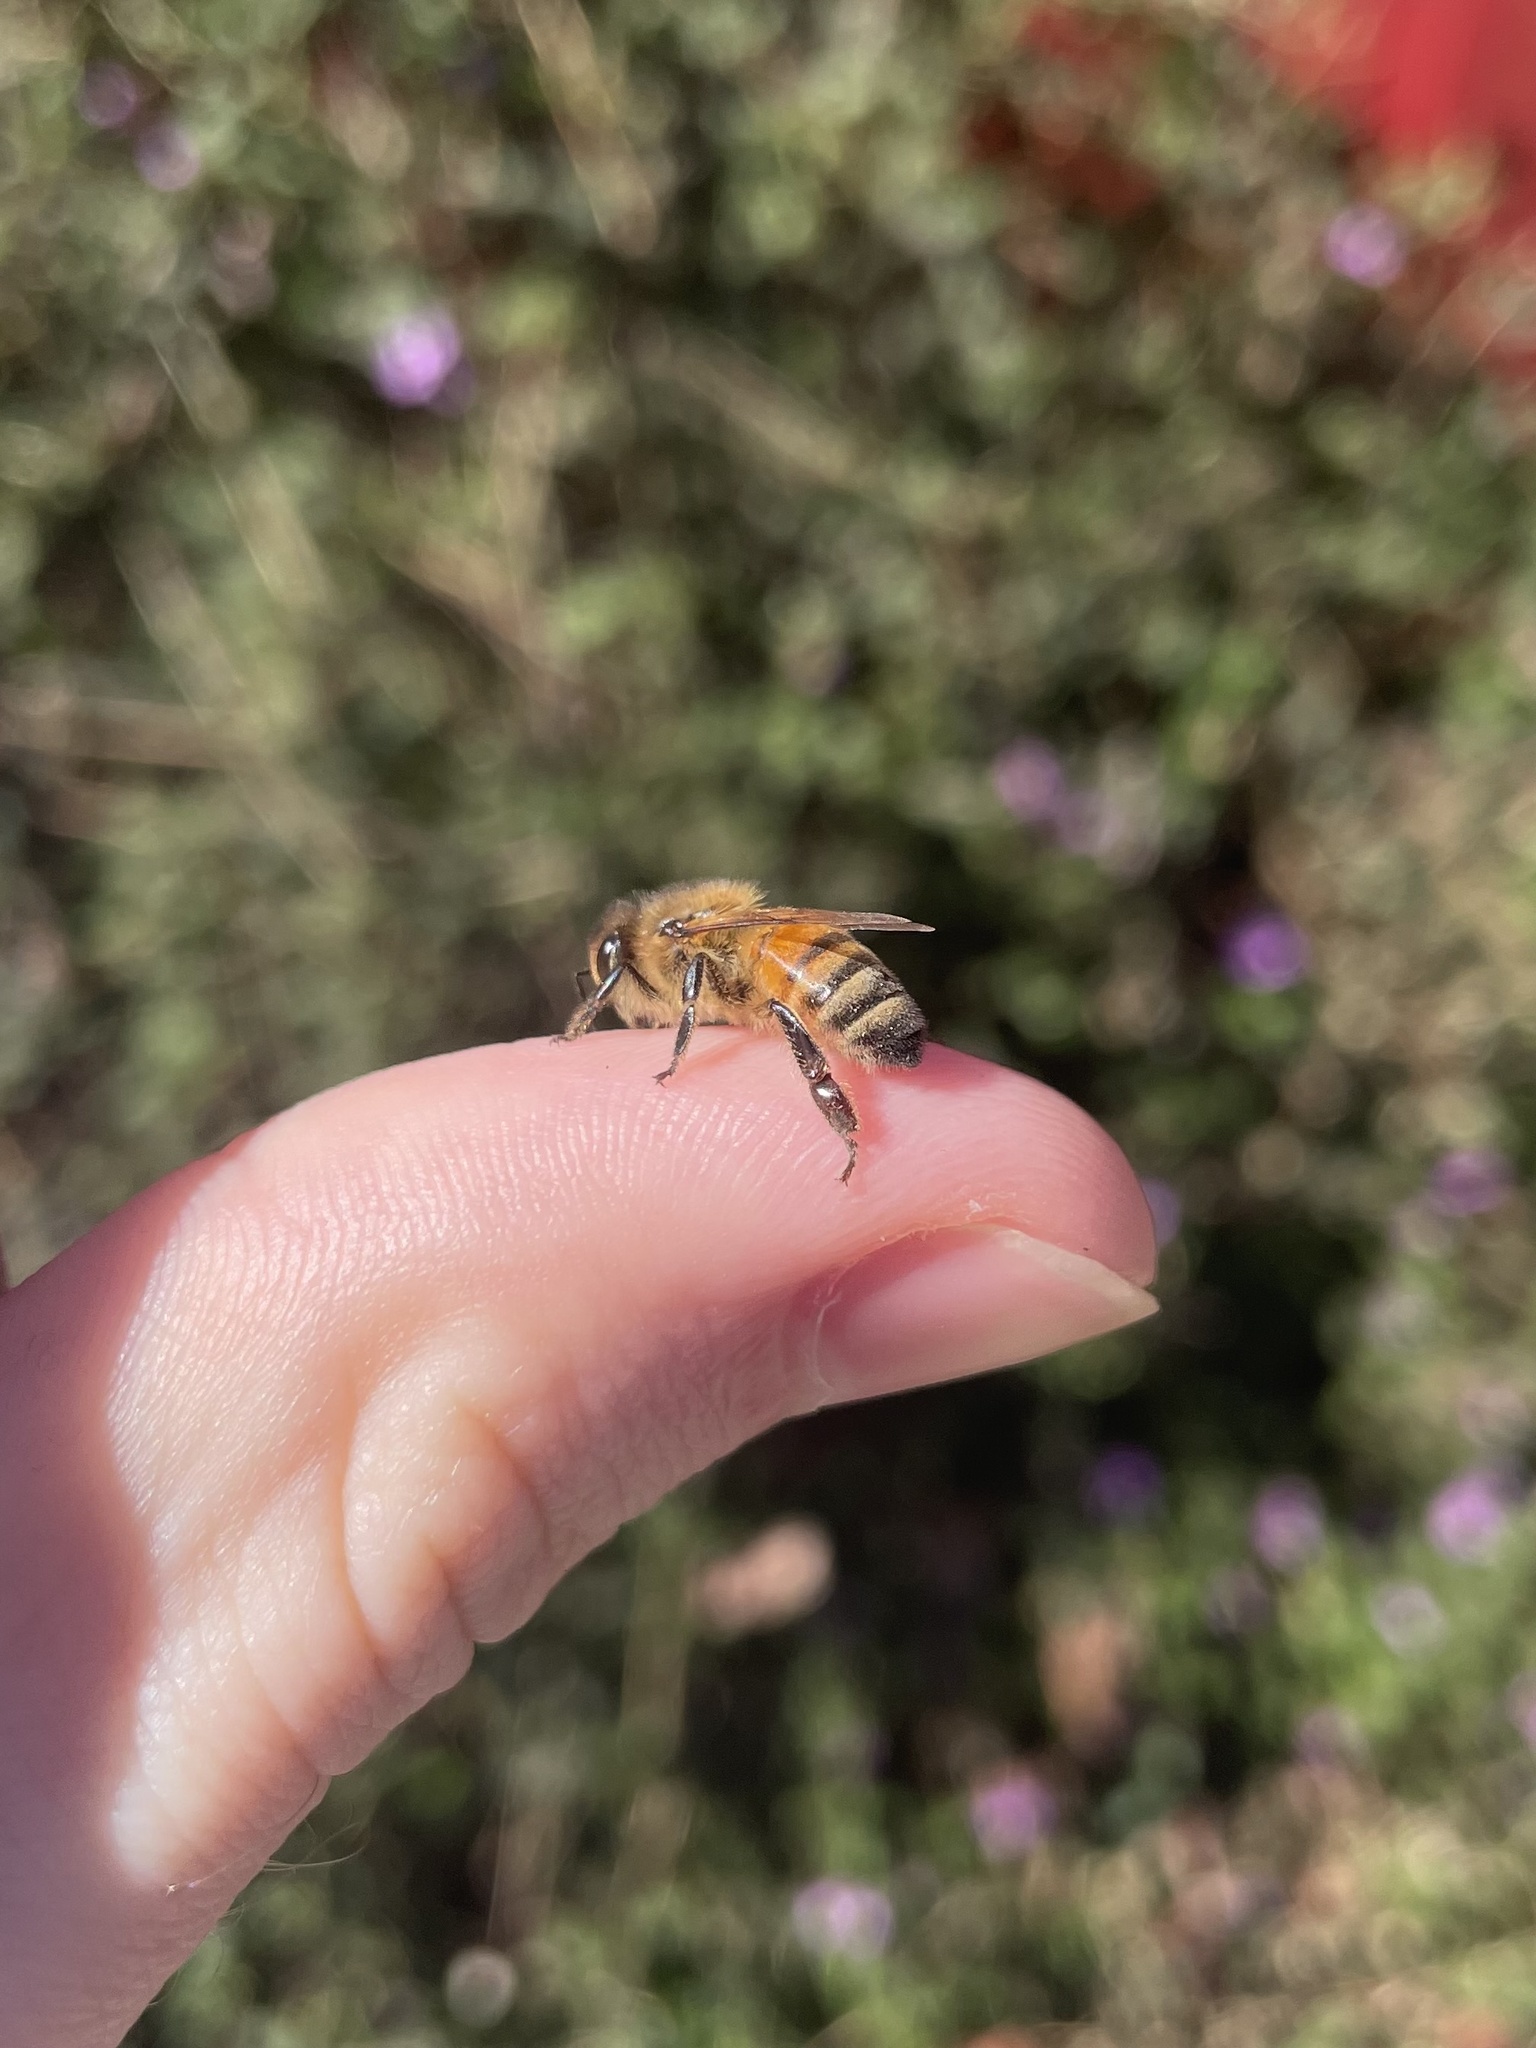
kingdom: Animalia
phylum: Arthropoda
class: Insecta
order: Hymenoptera
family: Apidae
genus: Apis
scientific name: Apis mellifera
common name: Honey bee
